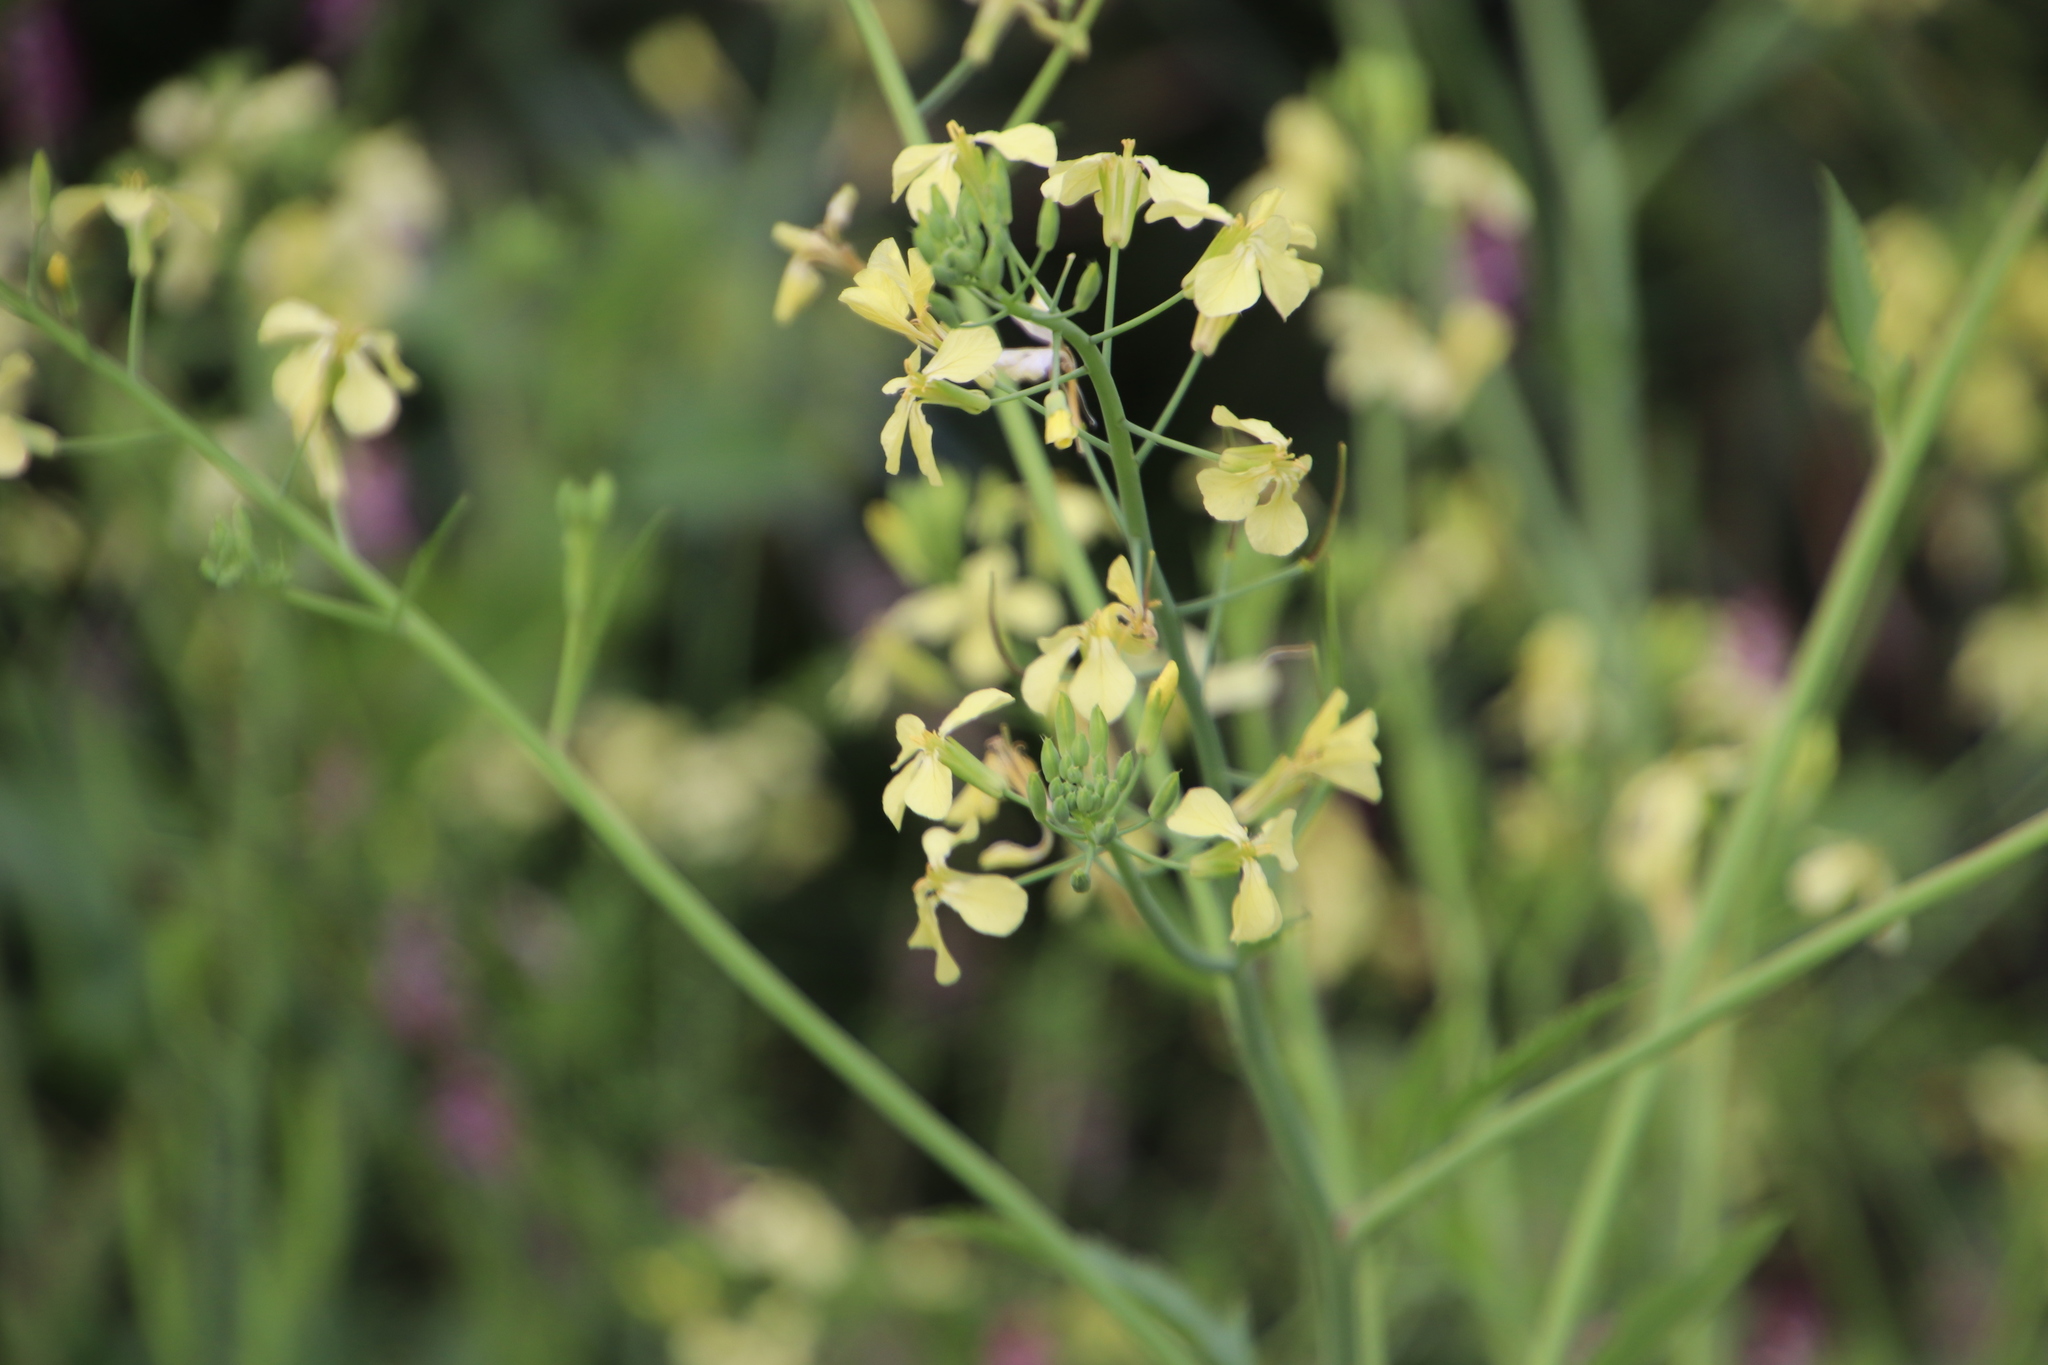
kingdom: Plantae
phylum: Tracheophyta
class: Magnoliopsida
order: Brassicales
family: Brassicaceae
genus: Raphanus
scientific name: Raphanus raphanistrum
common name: Wild radish
